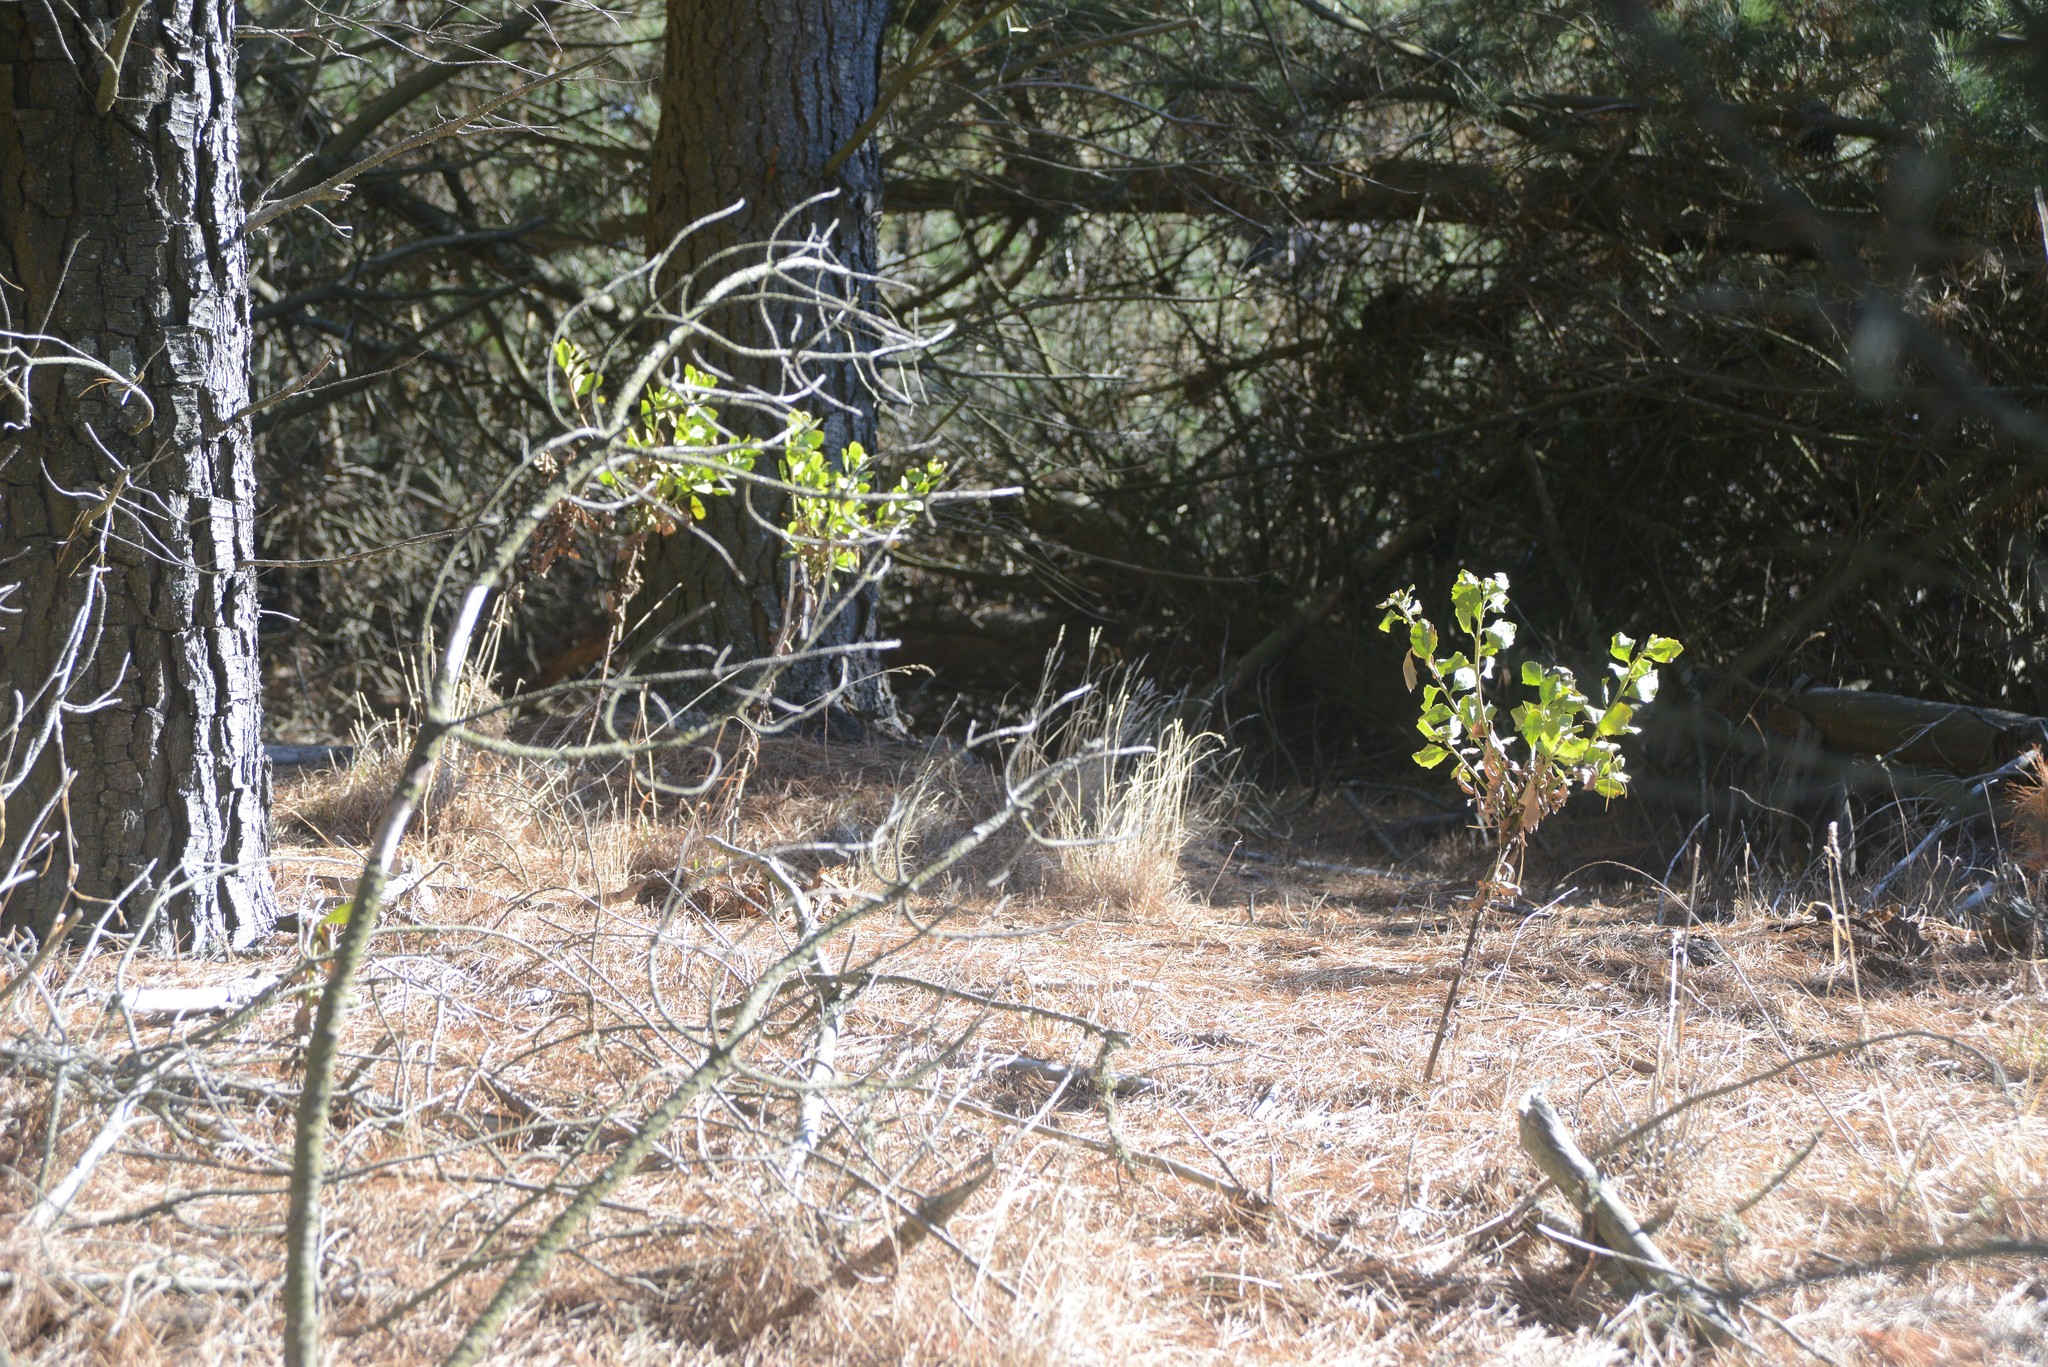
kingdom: Plantae
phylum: Tracheophyta
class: Magnoliopsida
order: Asterales
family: Asteraceae
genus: Osteospermum
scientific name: Osteospermum moniliferum
